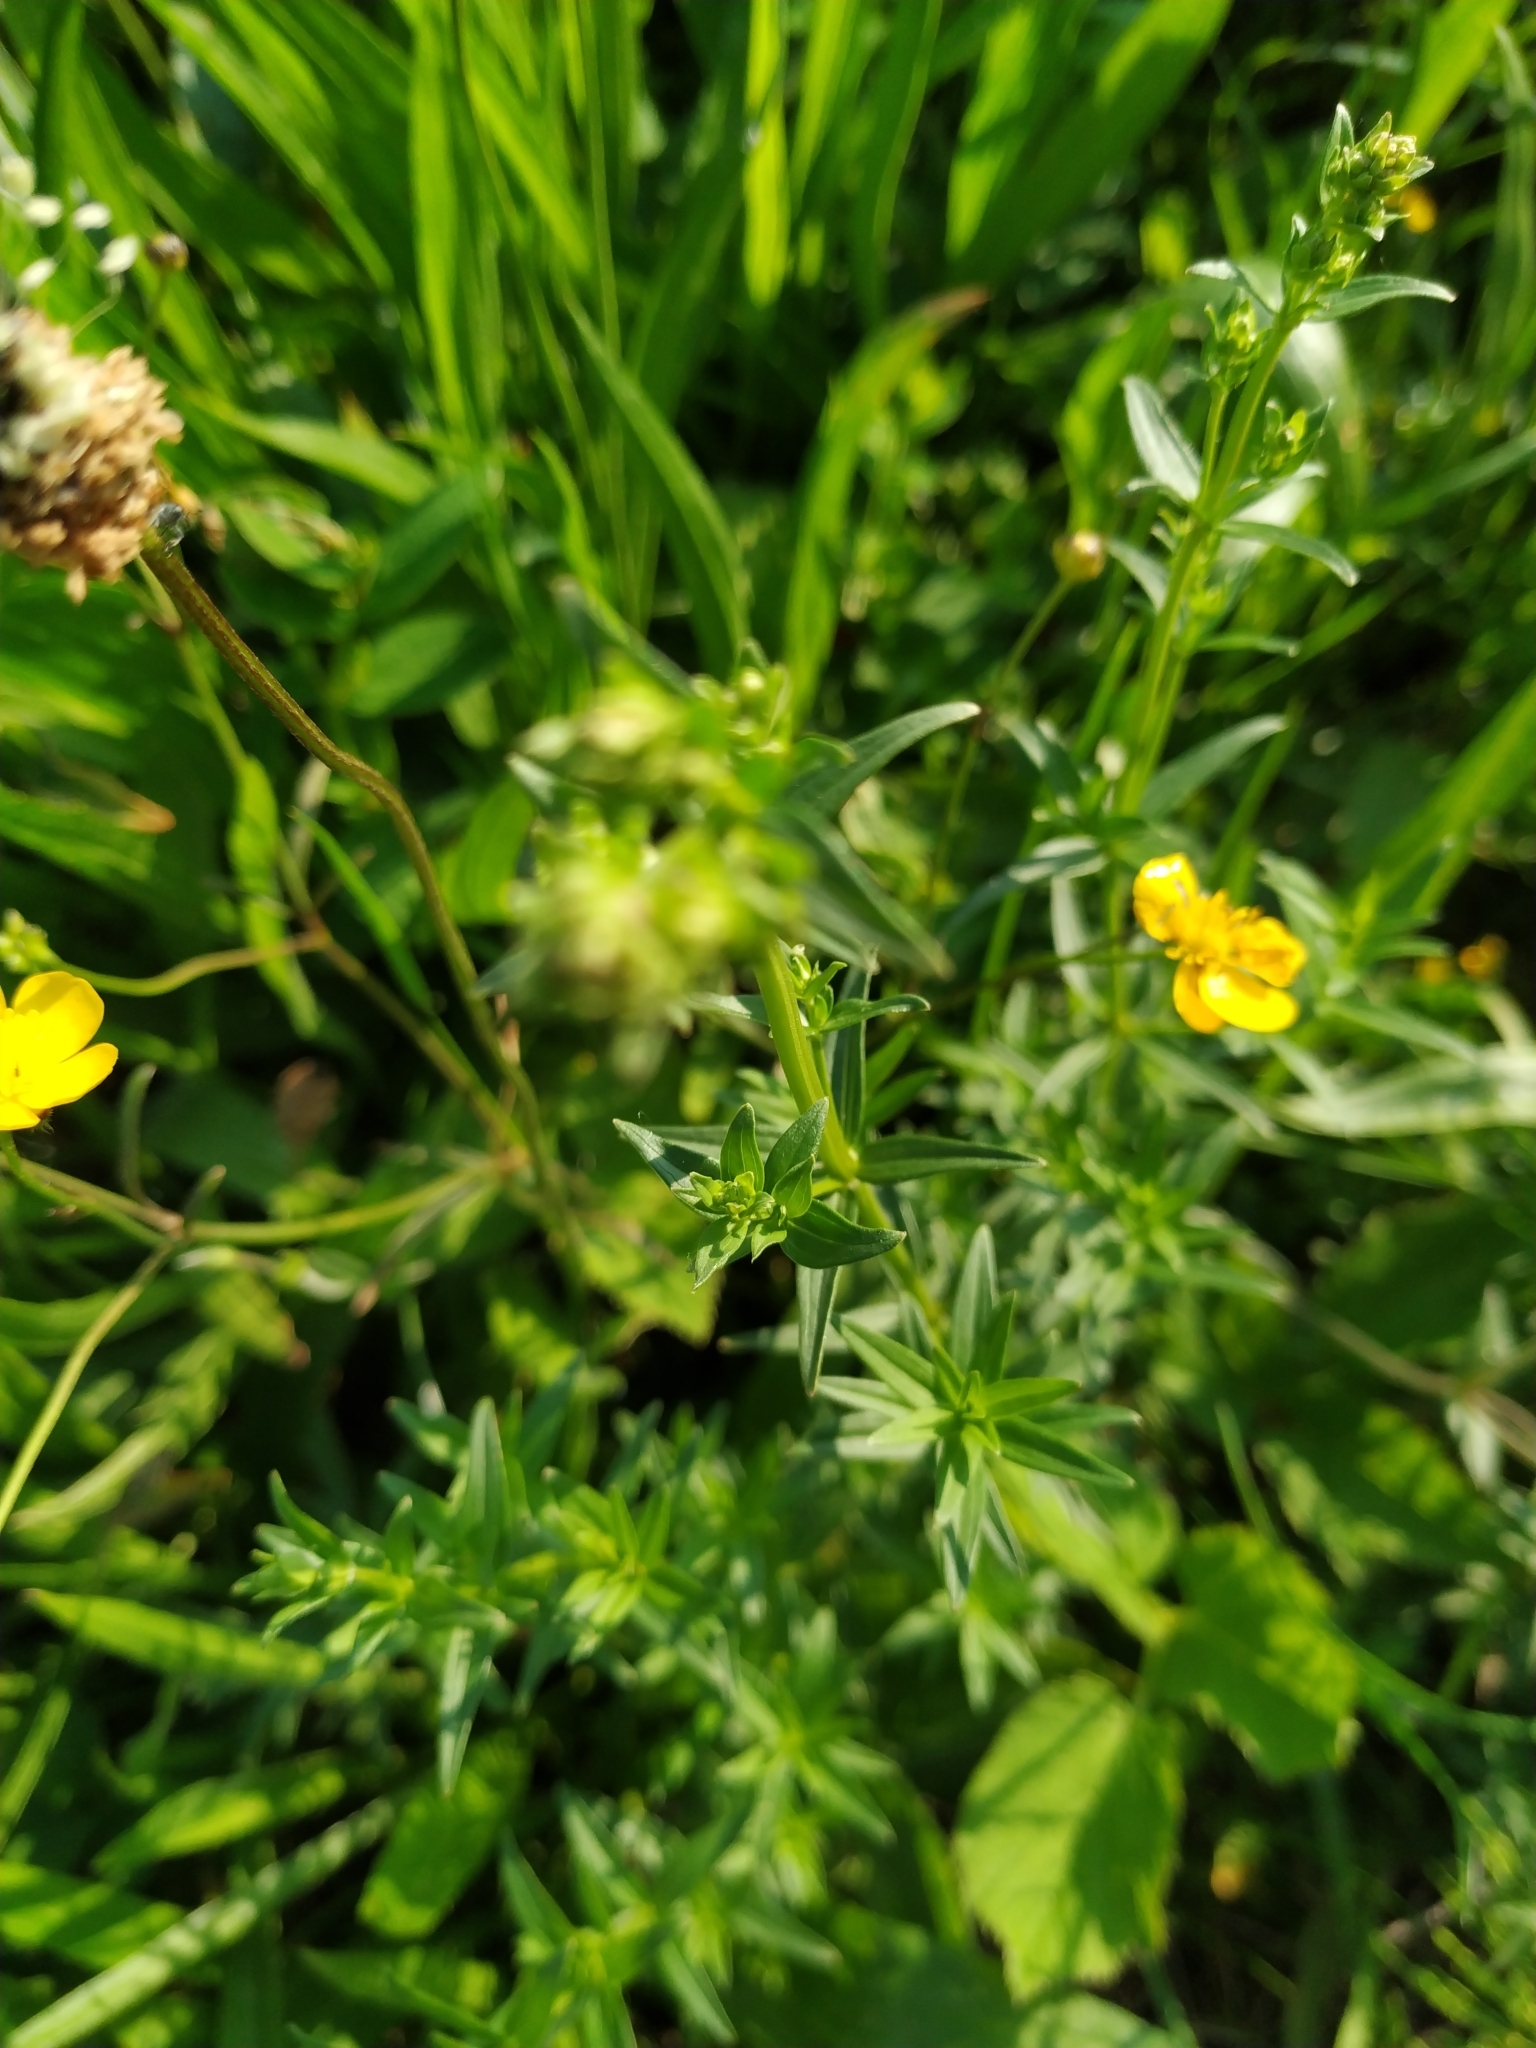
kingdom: Plantae
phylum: Tracheophyta
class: Magnoliopsida
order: Gentianales
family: Rubiaceae
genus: Galium
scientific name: Galium boreale
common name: Northern bedstraw
